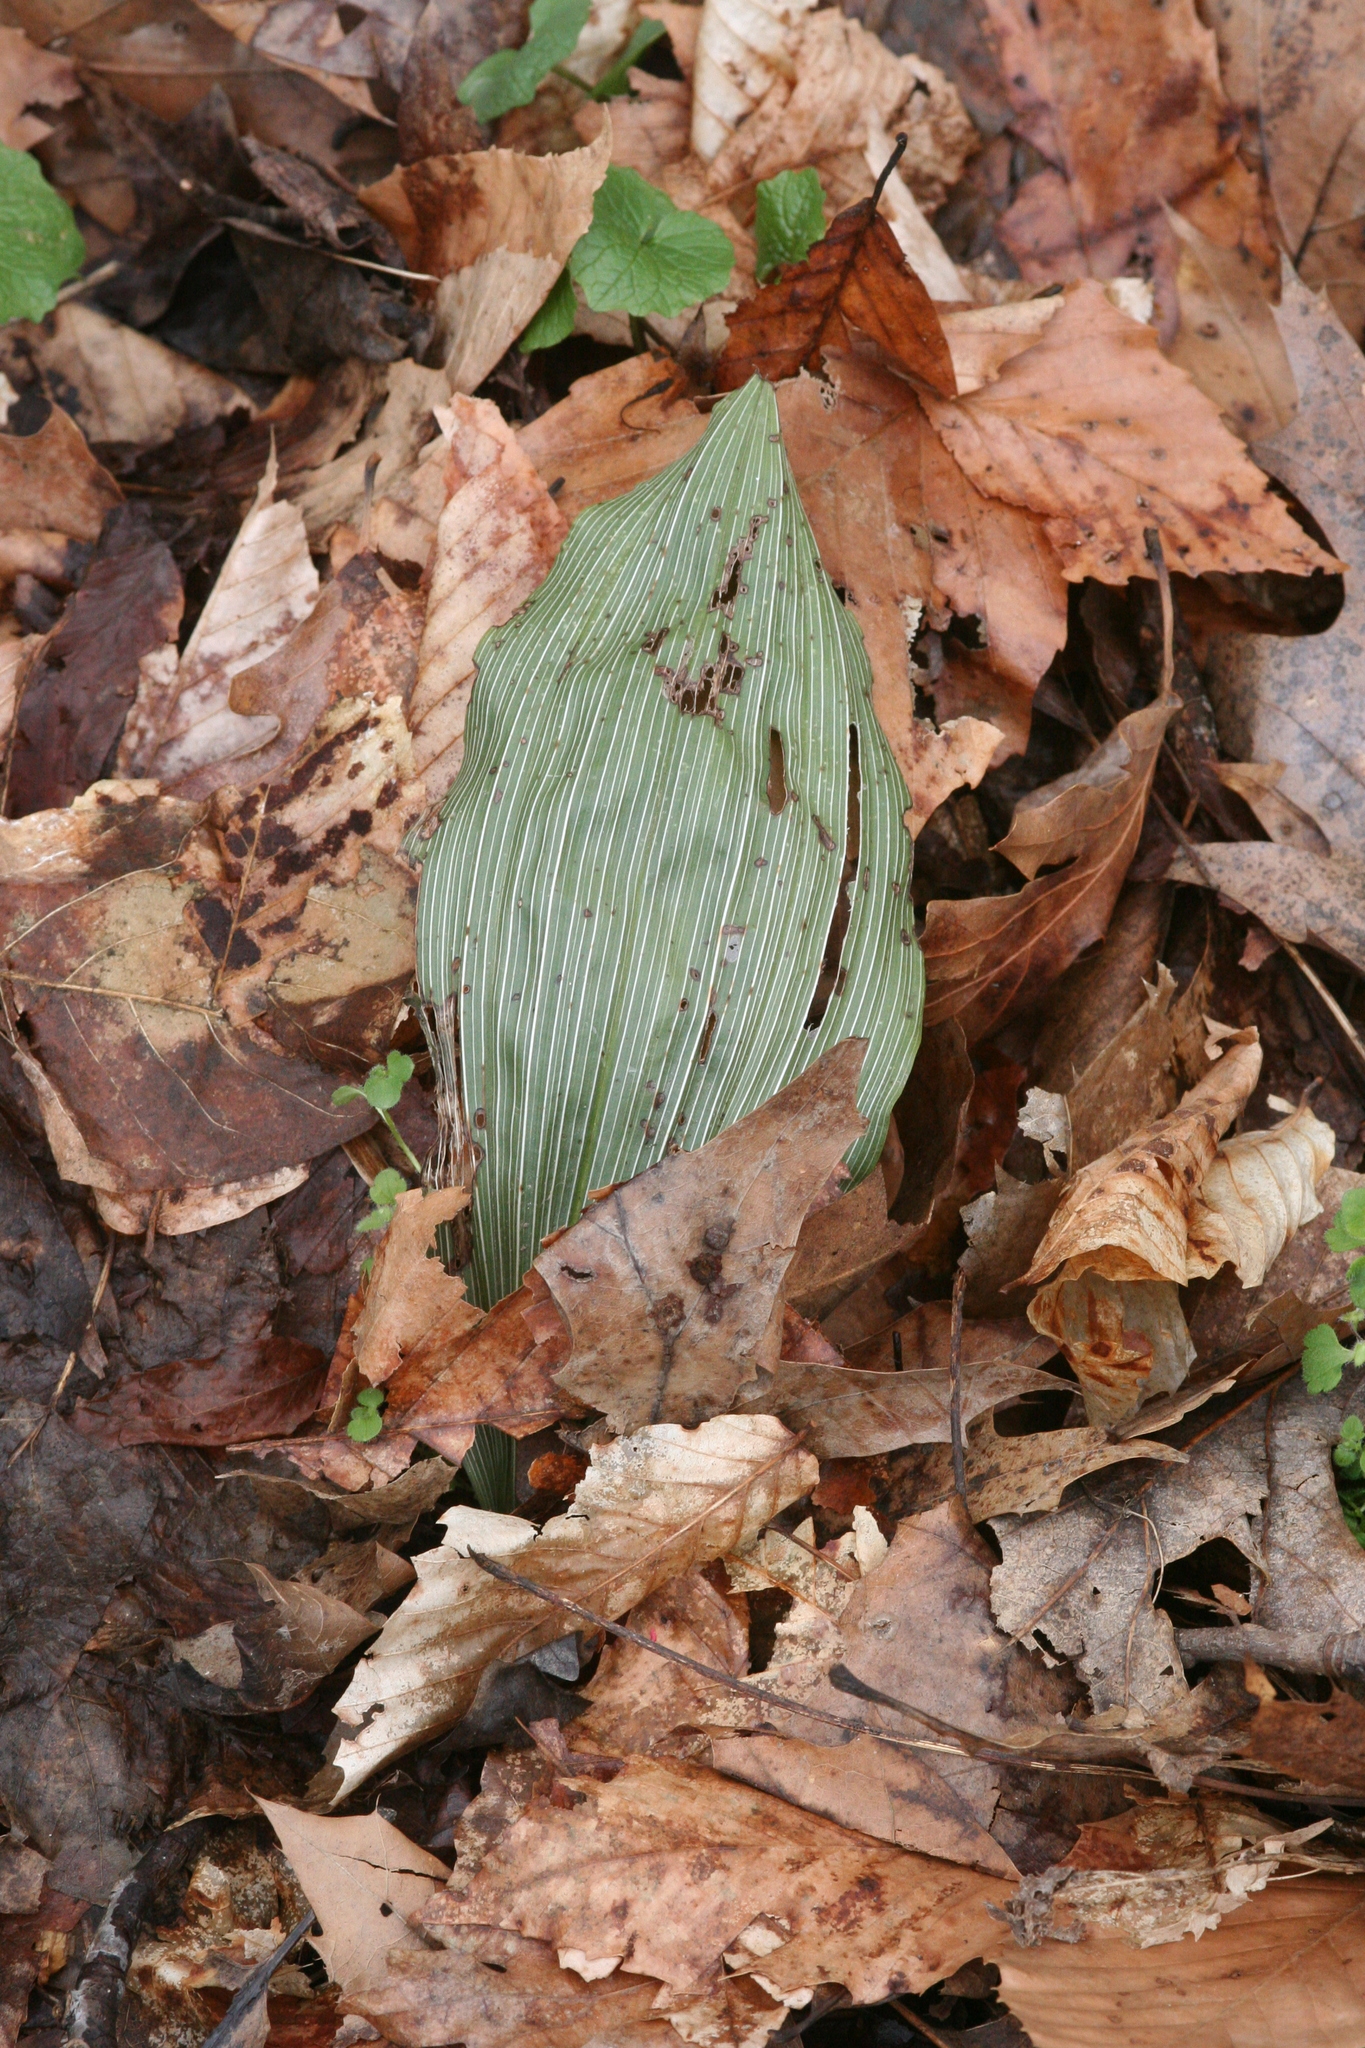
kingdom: Plantae
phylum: Tracheophyta
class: Liliopsida
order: Asparagales
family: Orchidaceae
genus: Aplectrum
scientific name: Aplectrum hyemale
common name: Adam-and-eve
